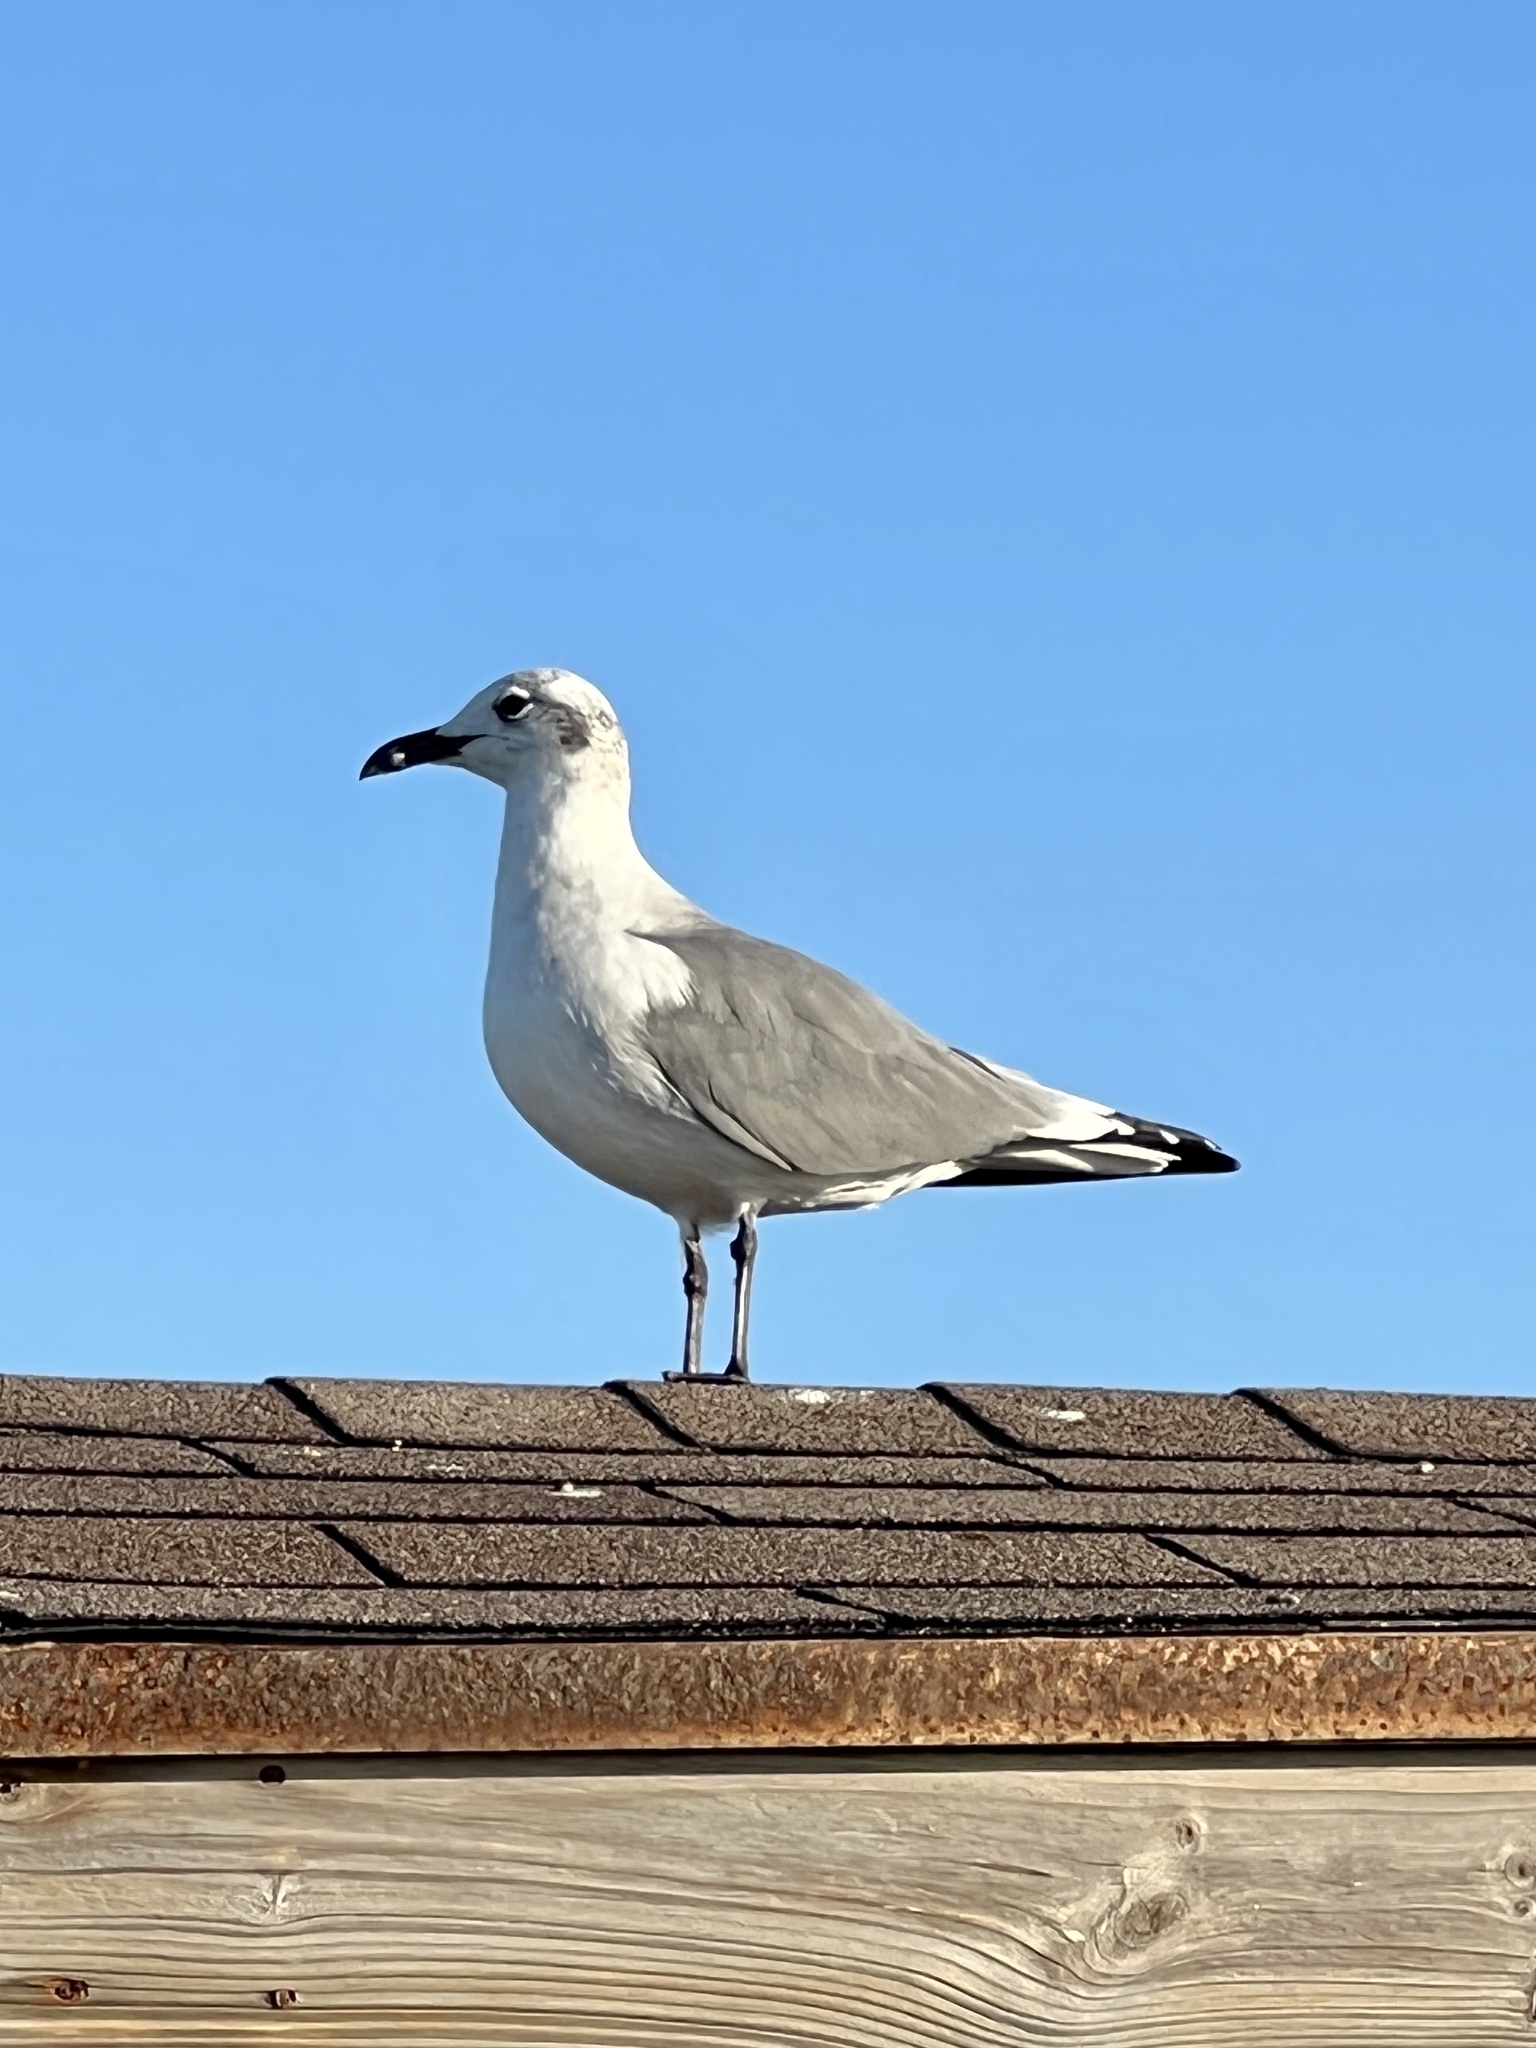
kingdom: Animalia
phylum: Chordata
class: Aves
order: Charadriiformes
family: Laridae
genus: Leucophaeus
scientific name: Leucophaeus atricilla
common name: Laughing gull
